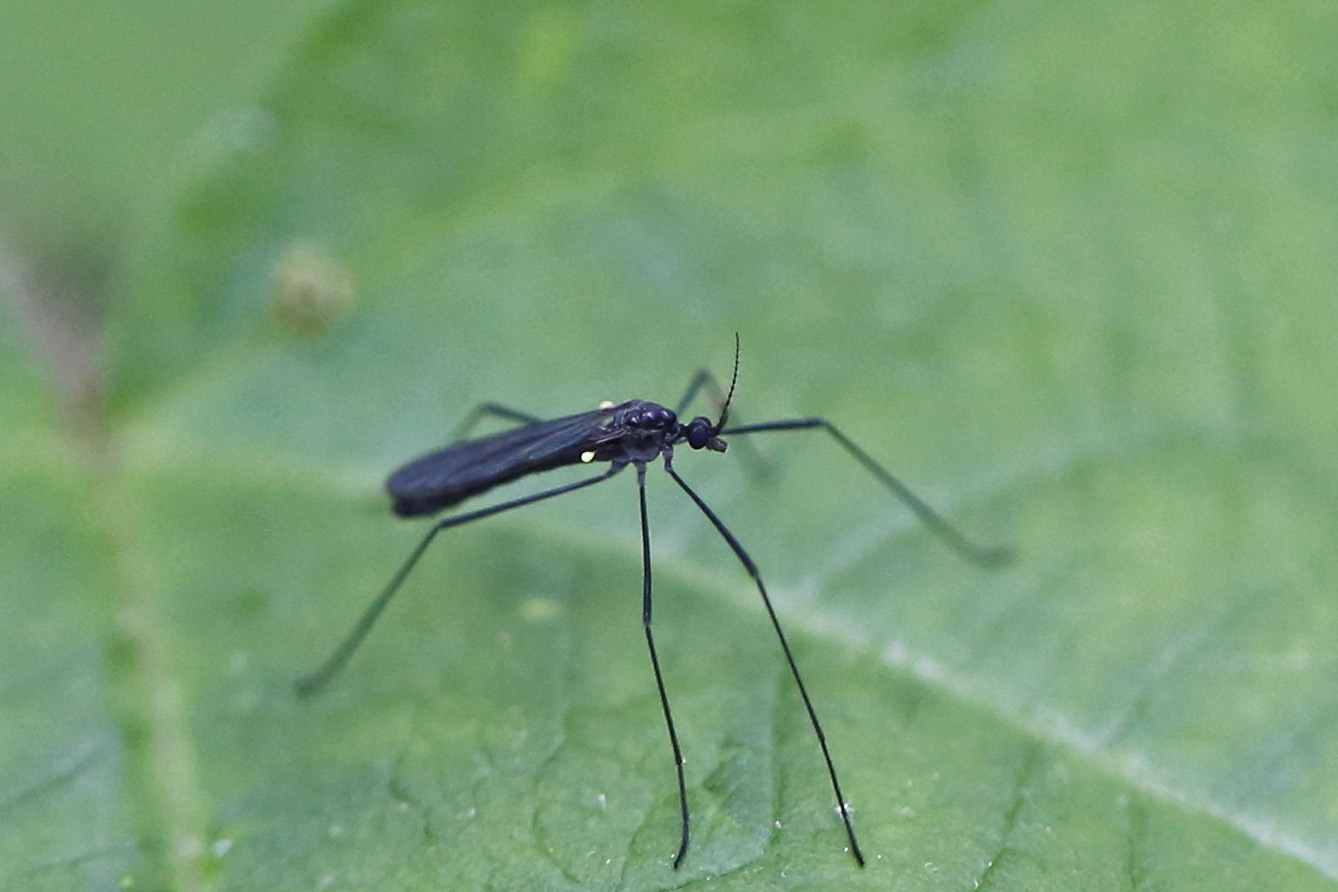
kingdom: Animalia
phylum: Arthropoda
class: Insecta
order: Diptera
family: Limoniidae
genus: Gnophomyia
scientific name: Gnophomyia tristissima
